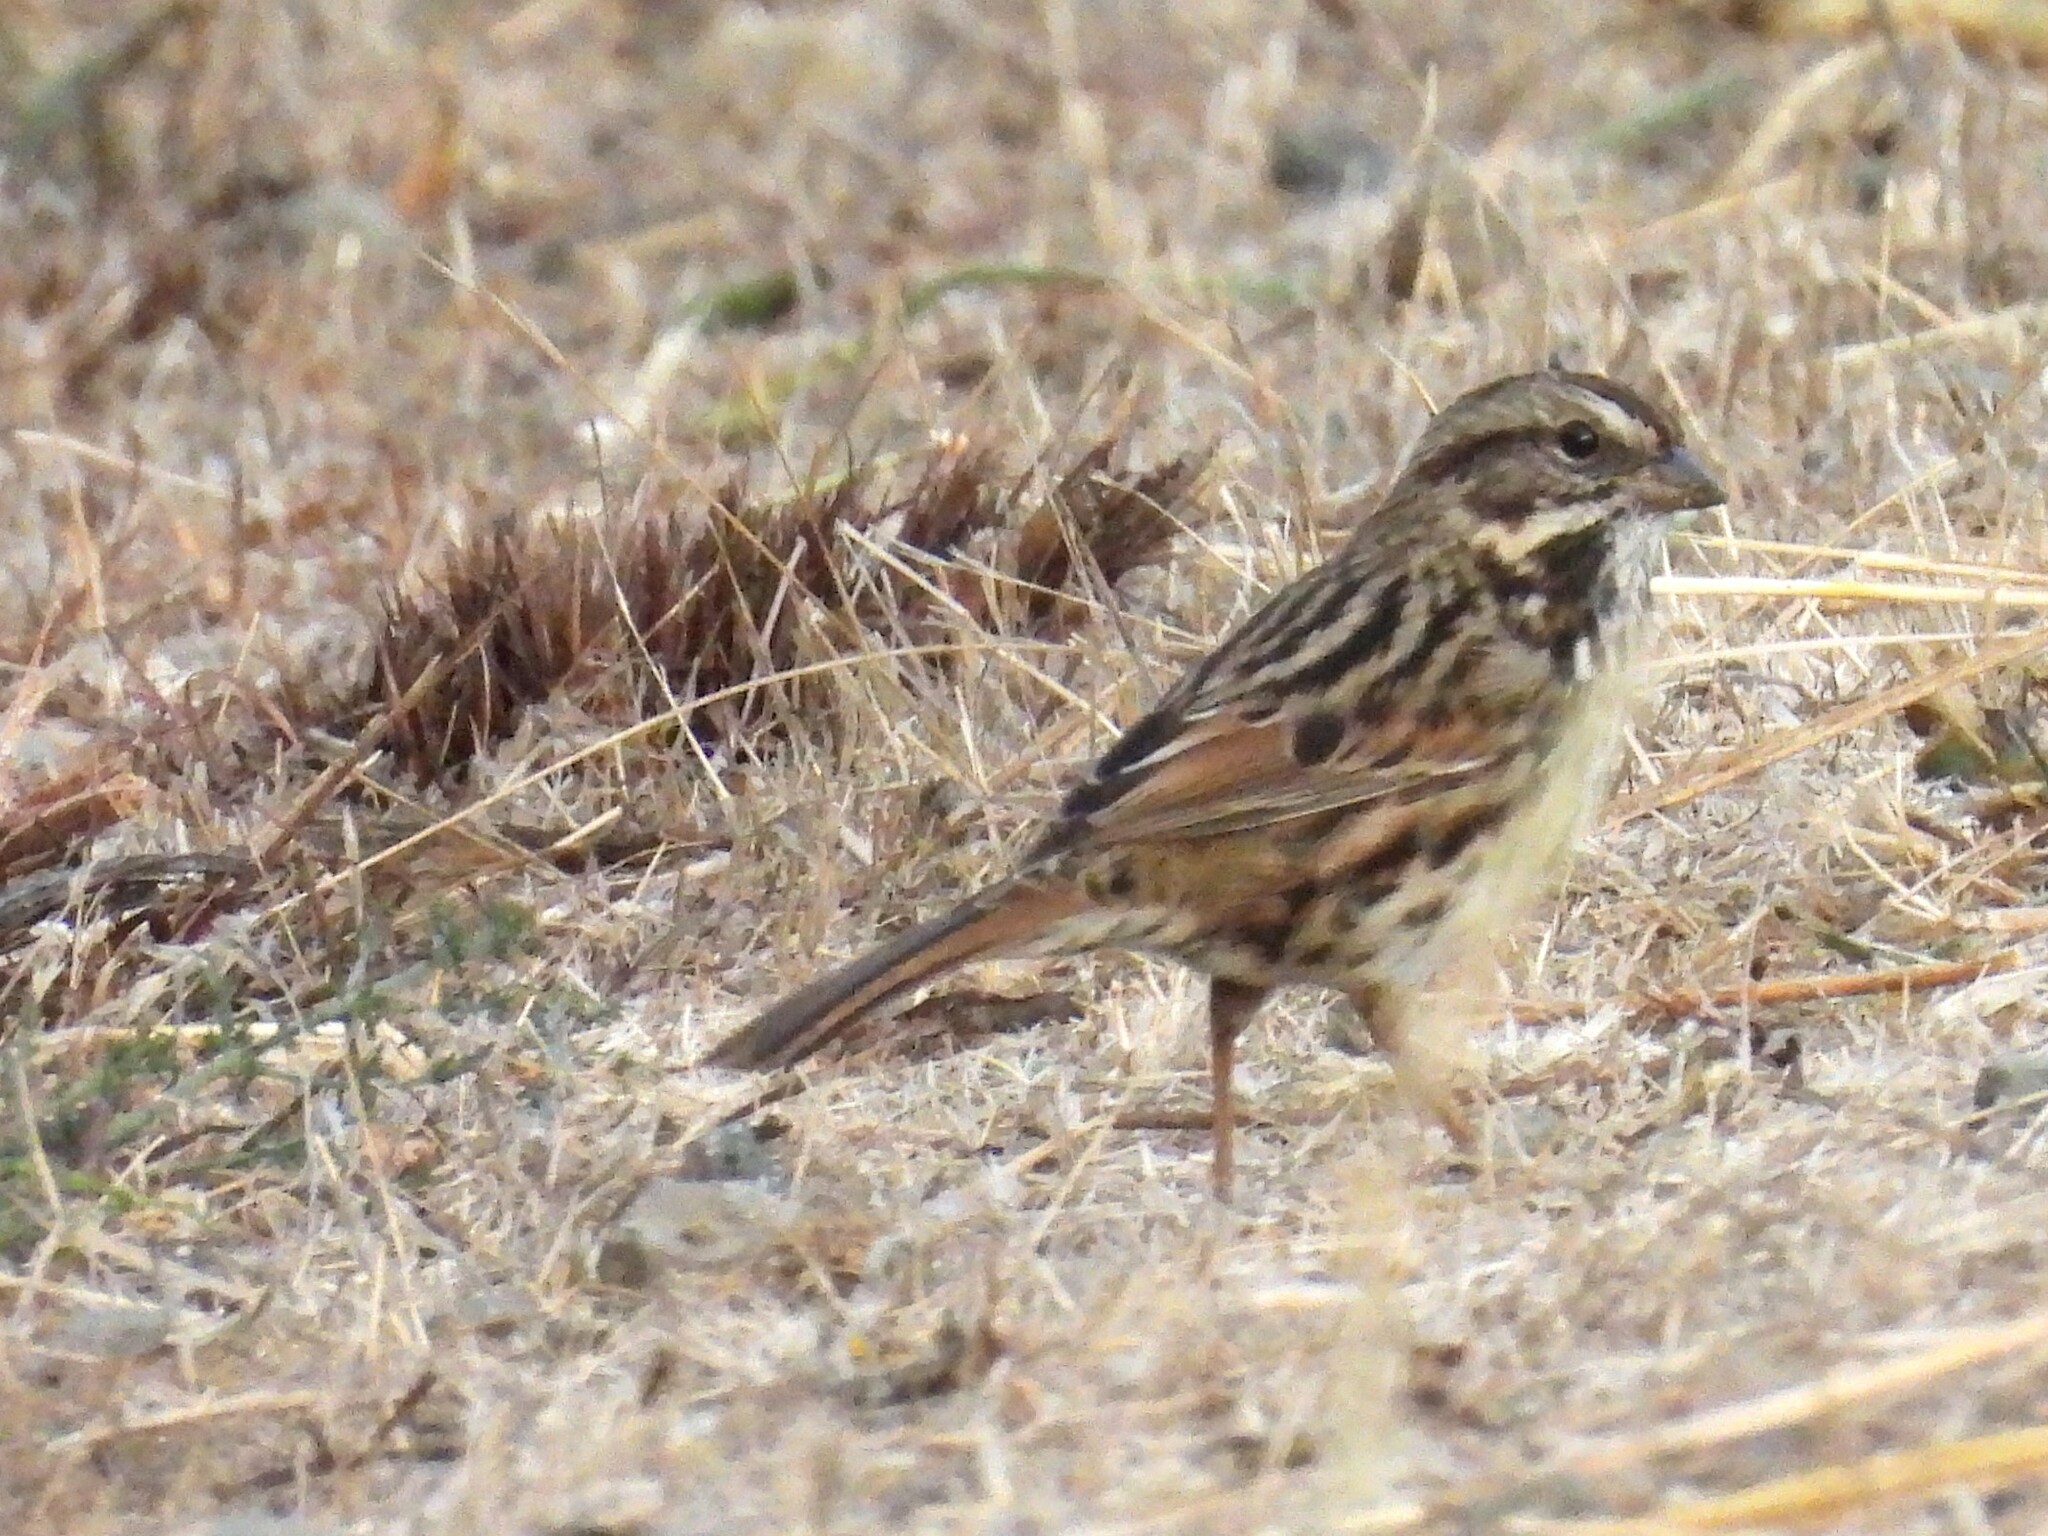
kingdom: Animalia
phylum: Chordata
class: Aves
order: Passeriformes
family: Passerellidae
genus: Melospiza
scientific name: Melospiza melodia
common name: Song sparrow
